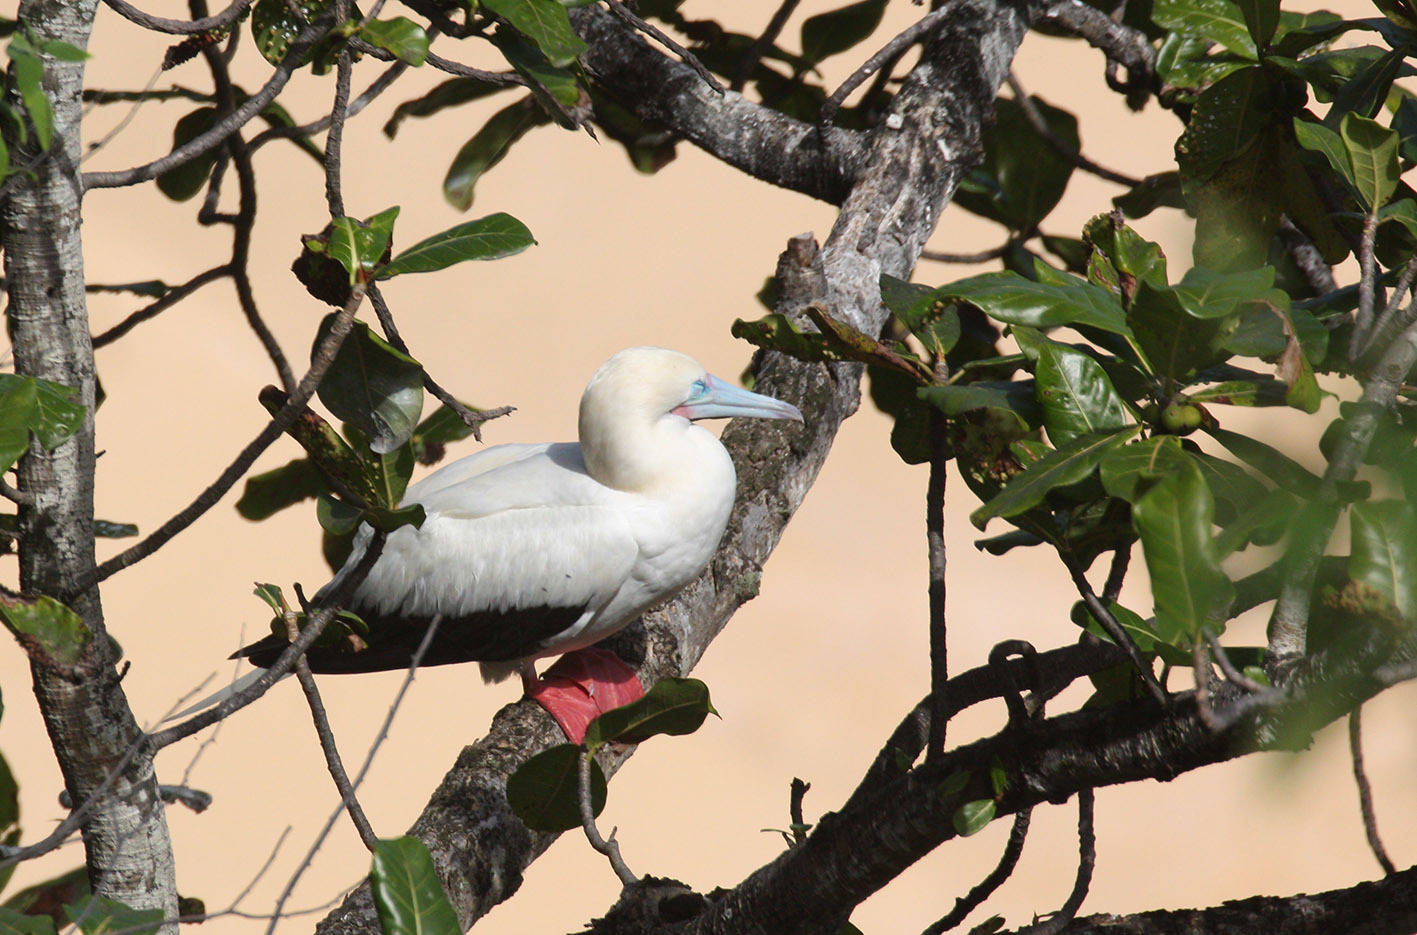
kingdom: Animalia
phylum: Chordata
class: Aves
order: Suliformes
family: Sulidae
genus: Sula
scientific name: Sula sula
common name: Red-footed booby
